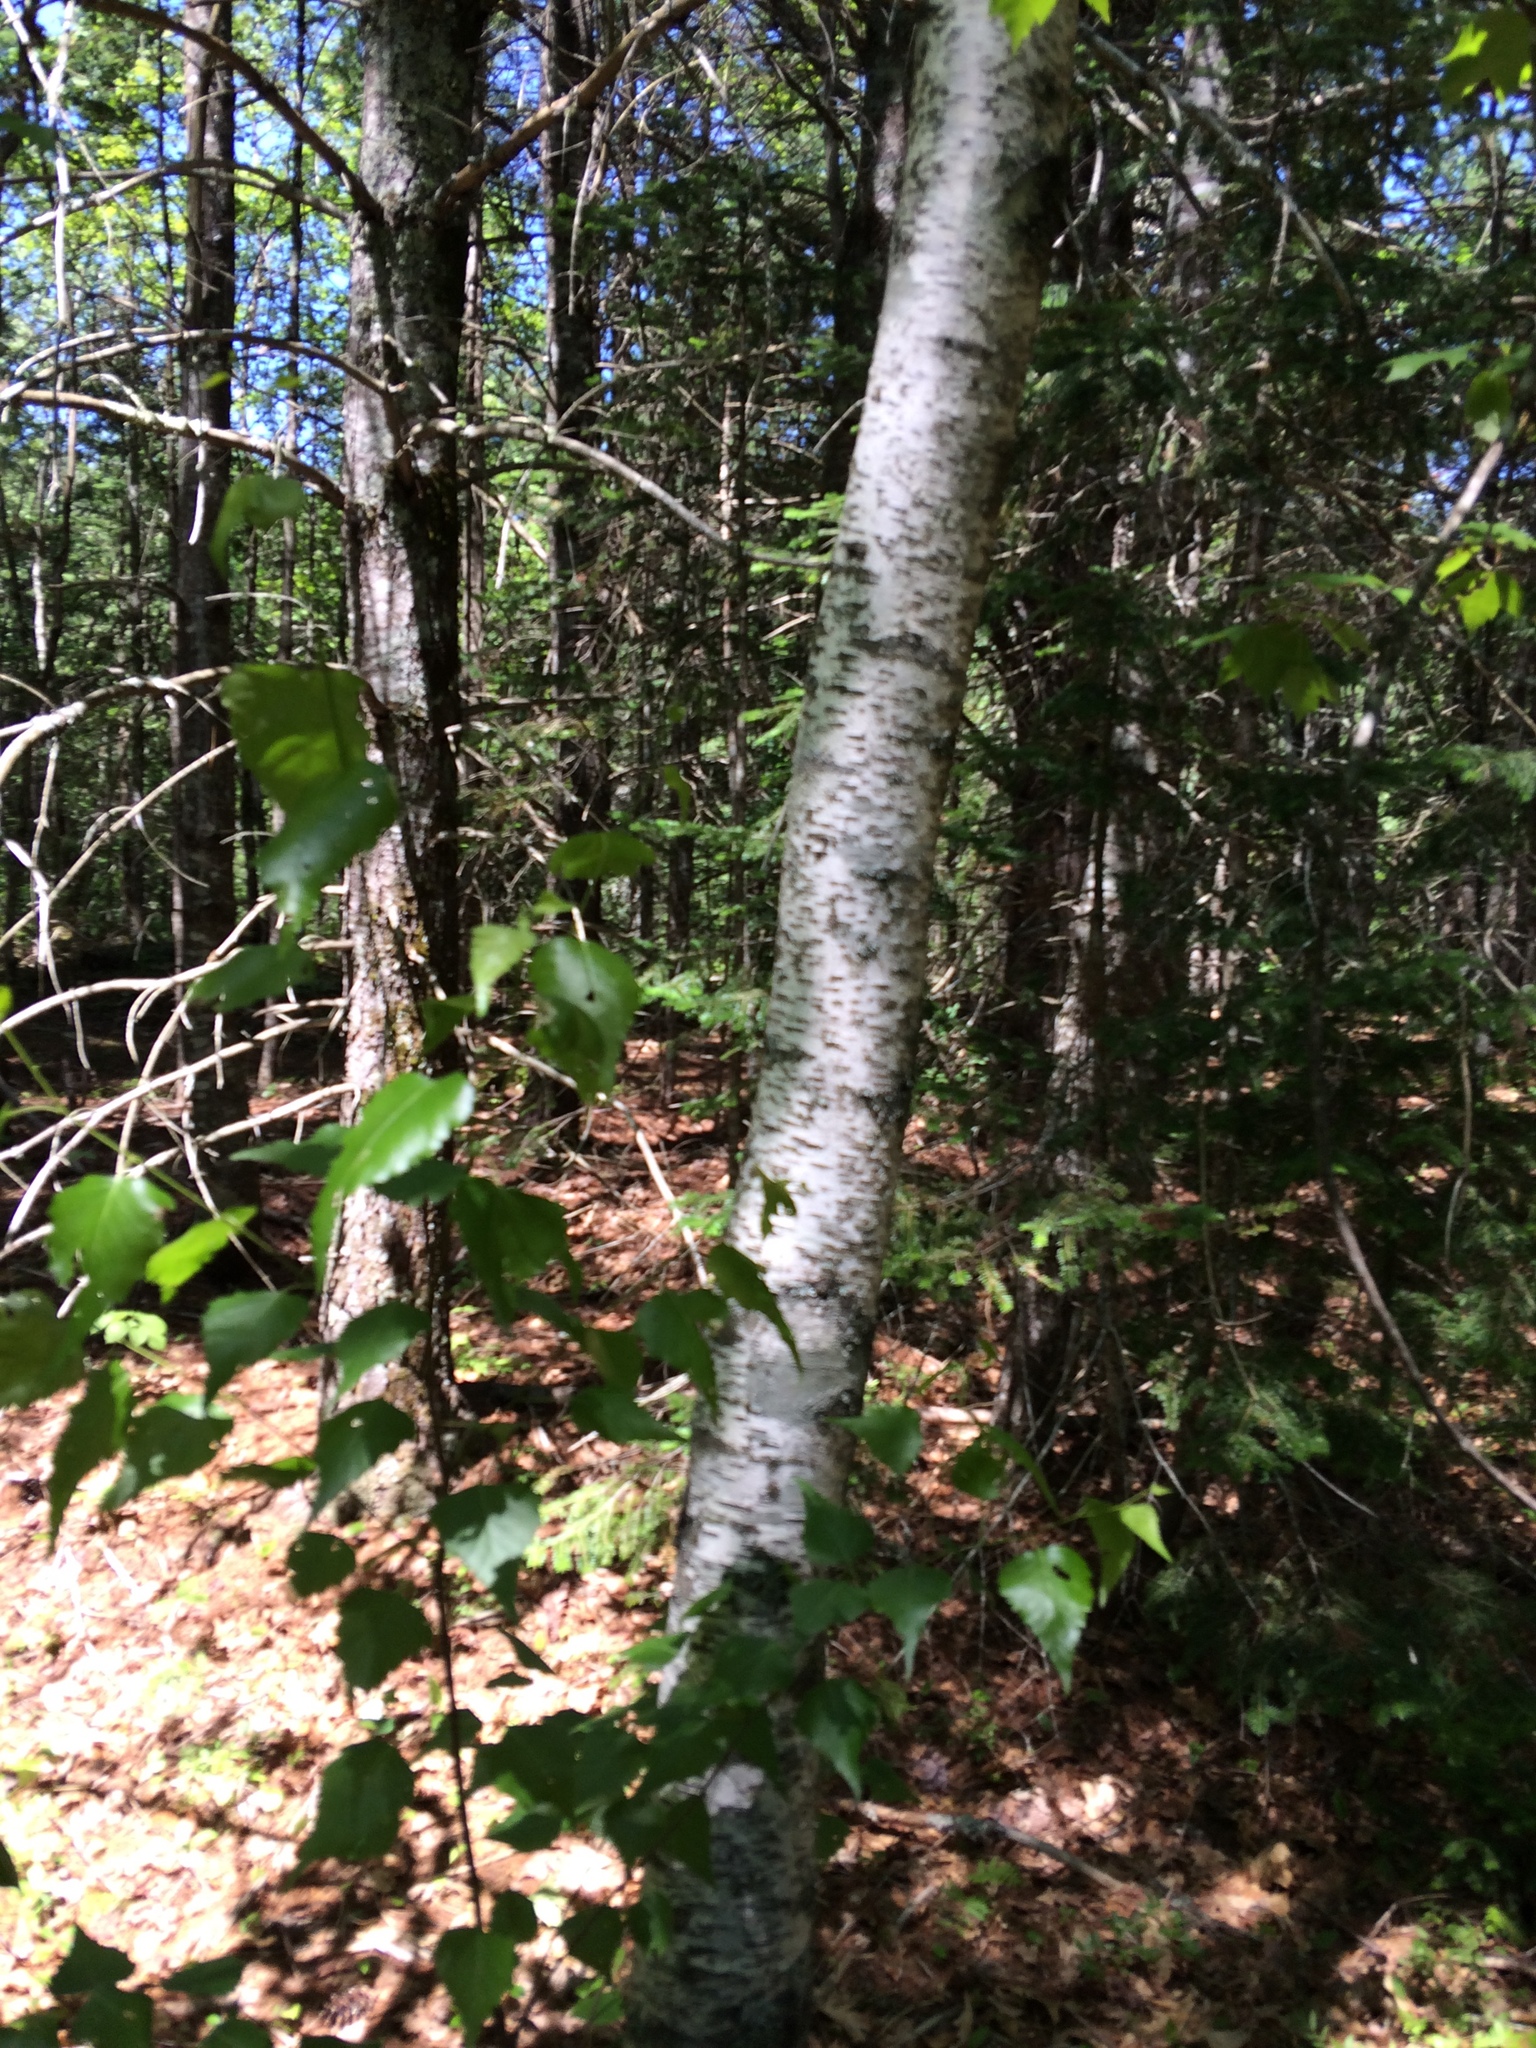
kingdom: Plantae
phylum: Tracheophyta
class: Magnoliopsida
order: Fagales
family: Betulaceae
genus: Betula
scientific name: Betula populifolia
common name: Fire birch
